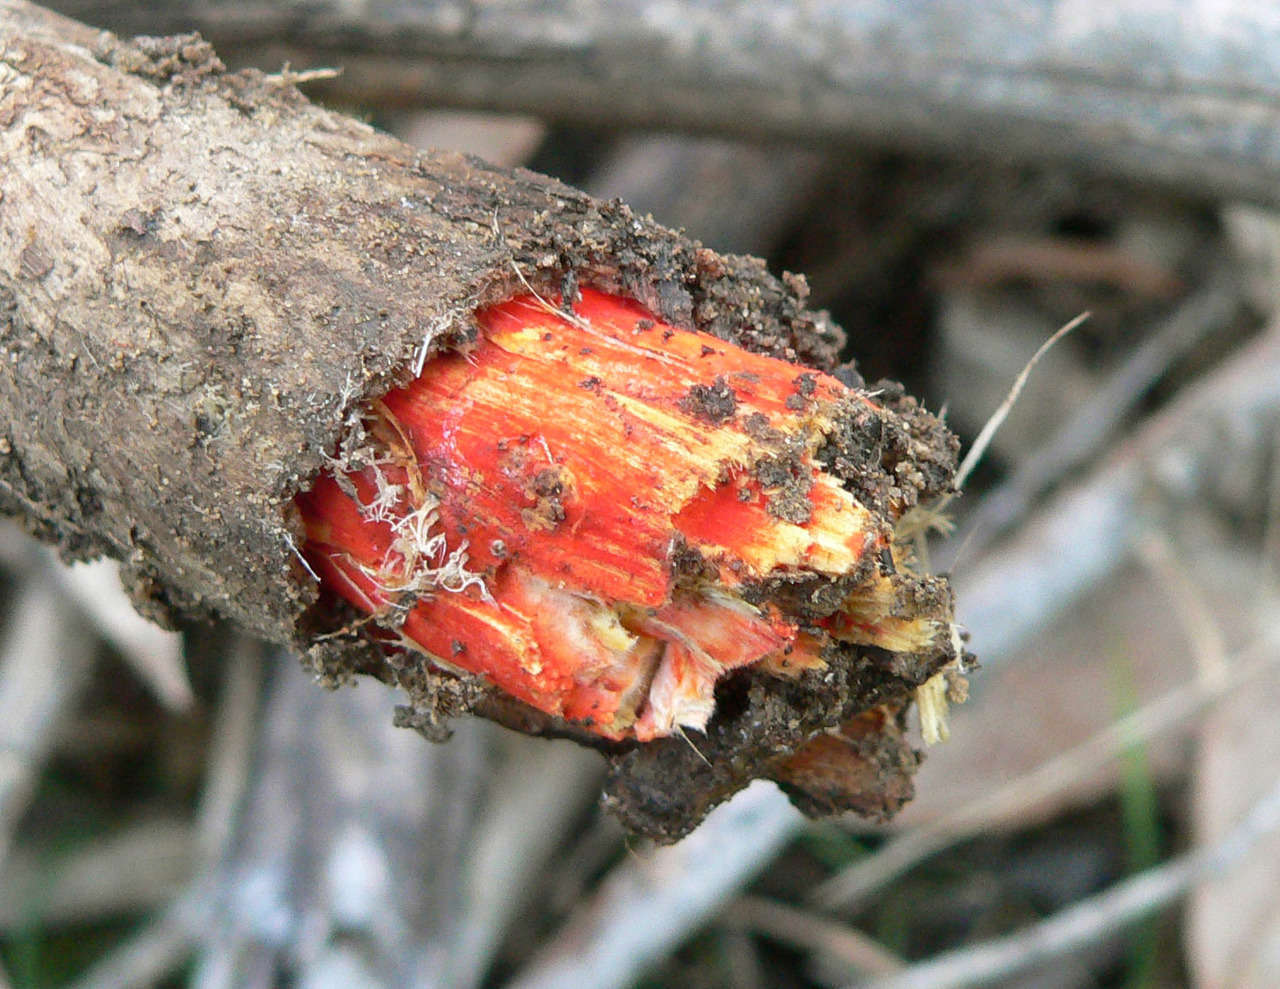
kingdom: Fungi
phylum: Basidiomycota
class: Agaricomycetes
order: Polyporales
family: Polyporaceae
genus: Trametes
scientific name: Trametes coccinea
